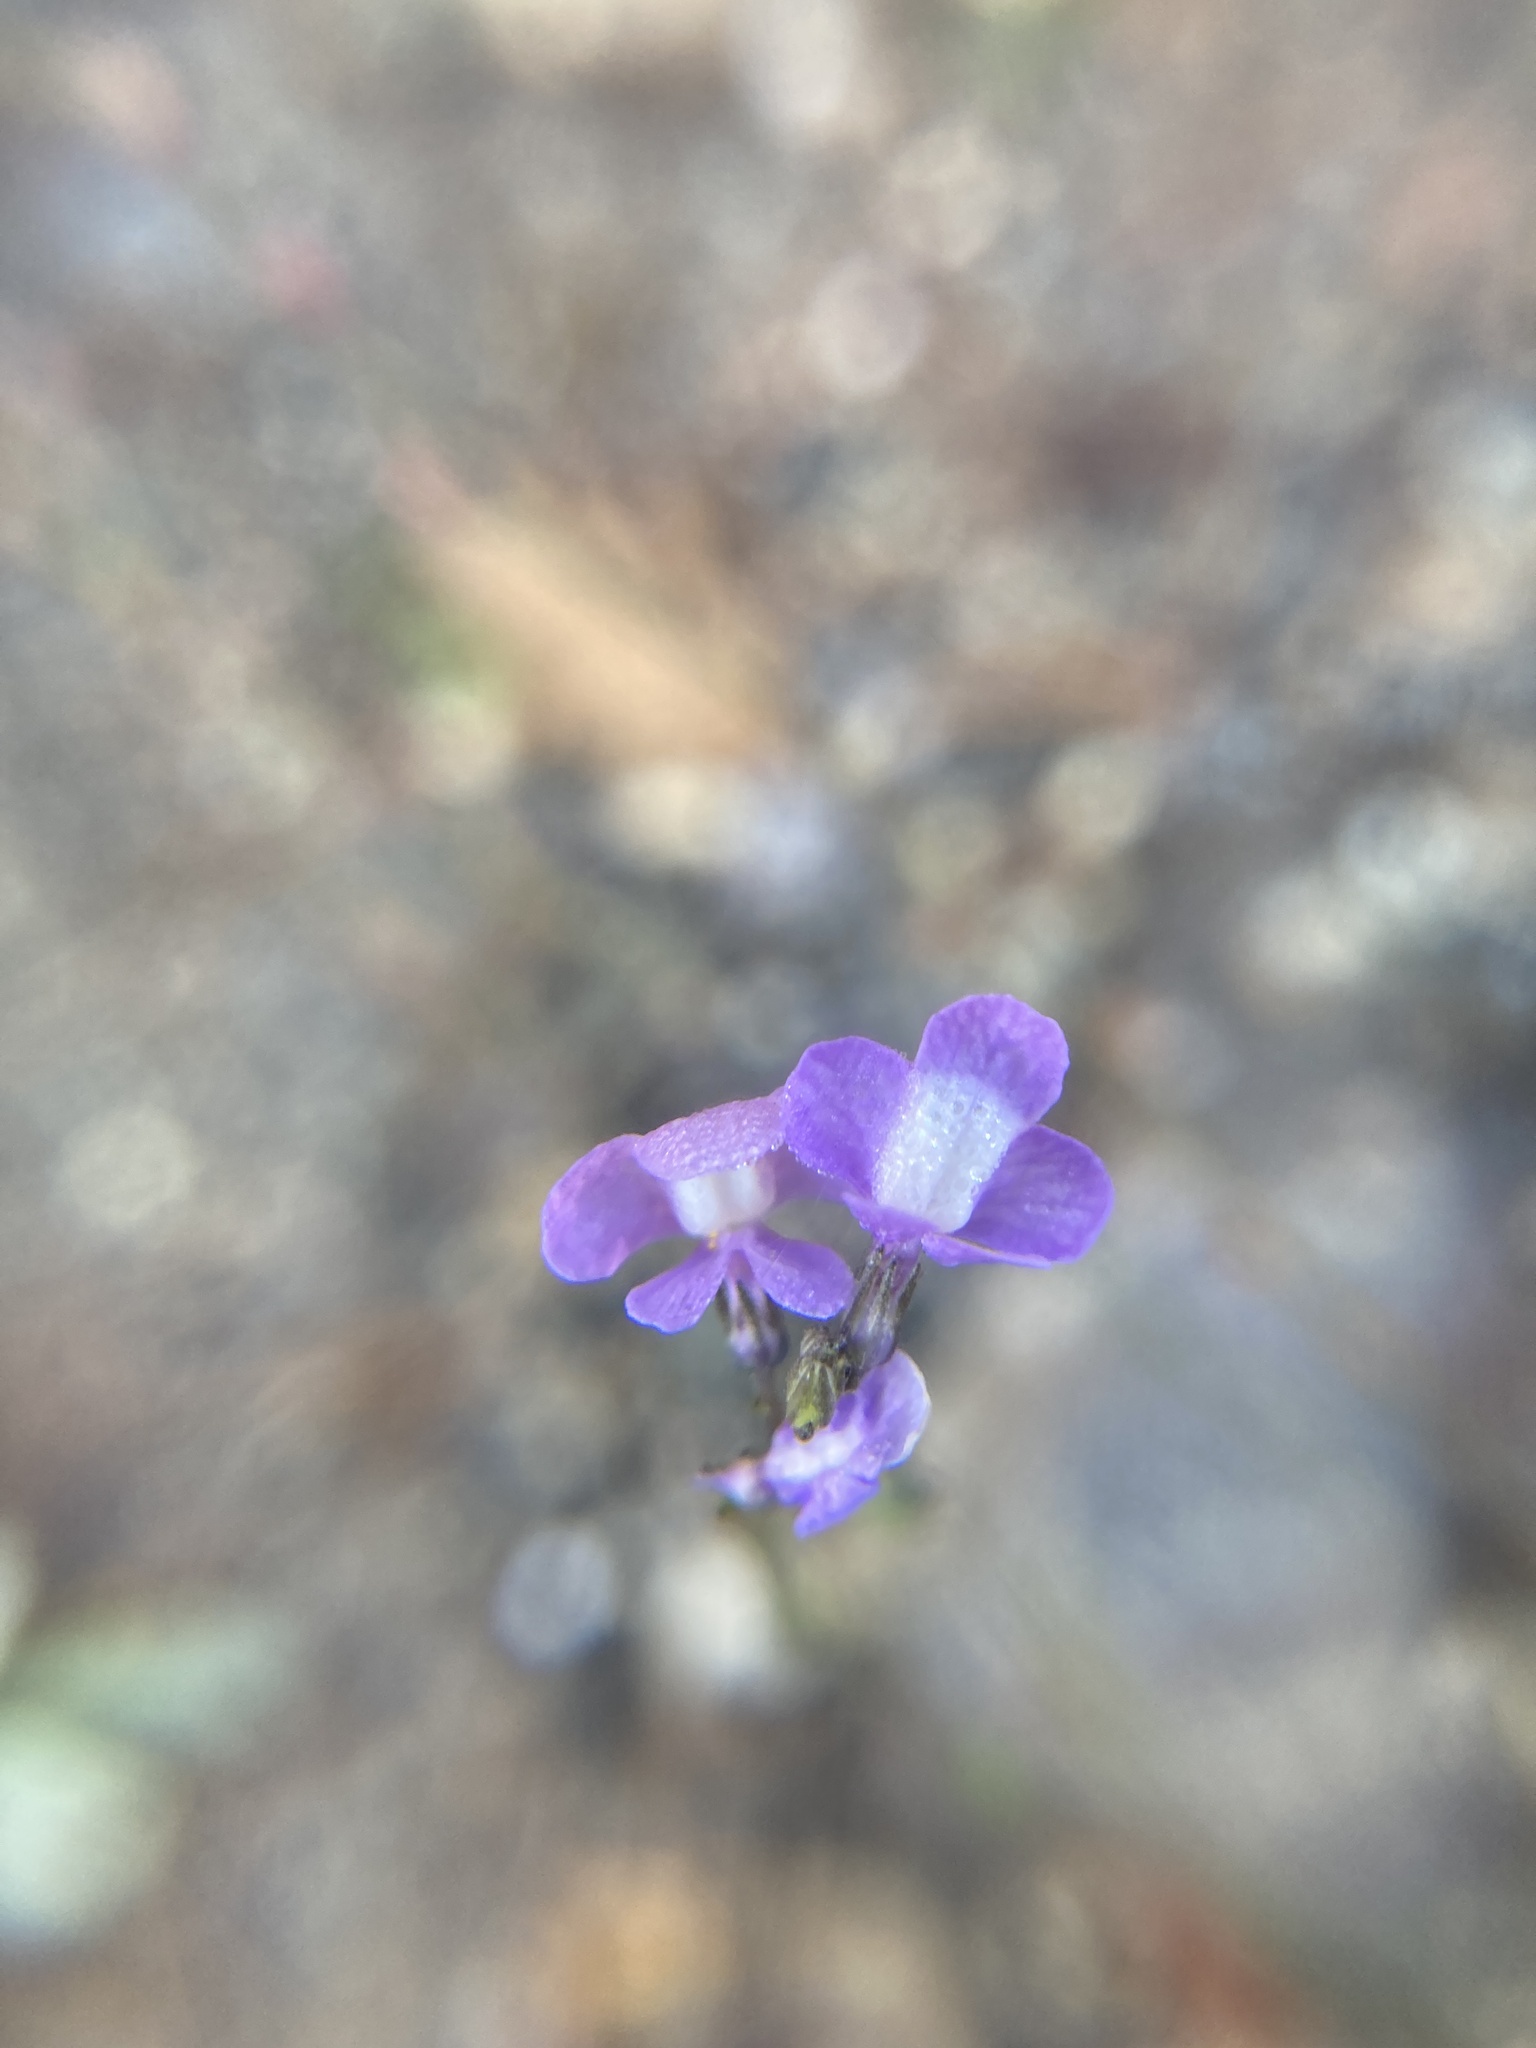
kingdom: Plantae
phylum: Tracheophyta
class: Magnoliopsida
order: Lamiales
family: Plantaginaceae
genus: Nuttallanthus
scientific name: Nuttallanthus canadensis
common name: Blue toadflax
